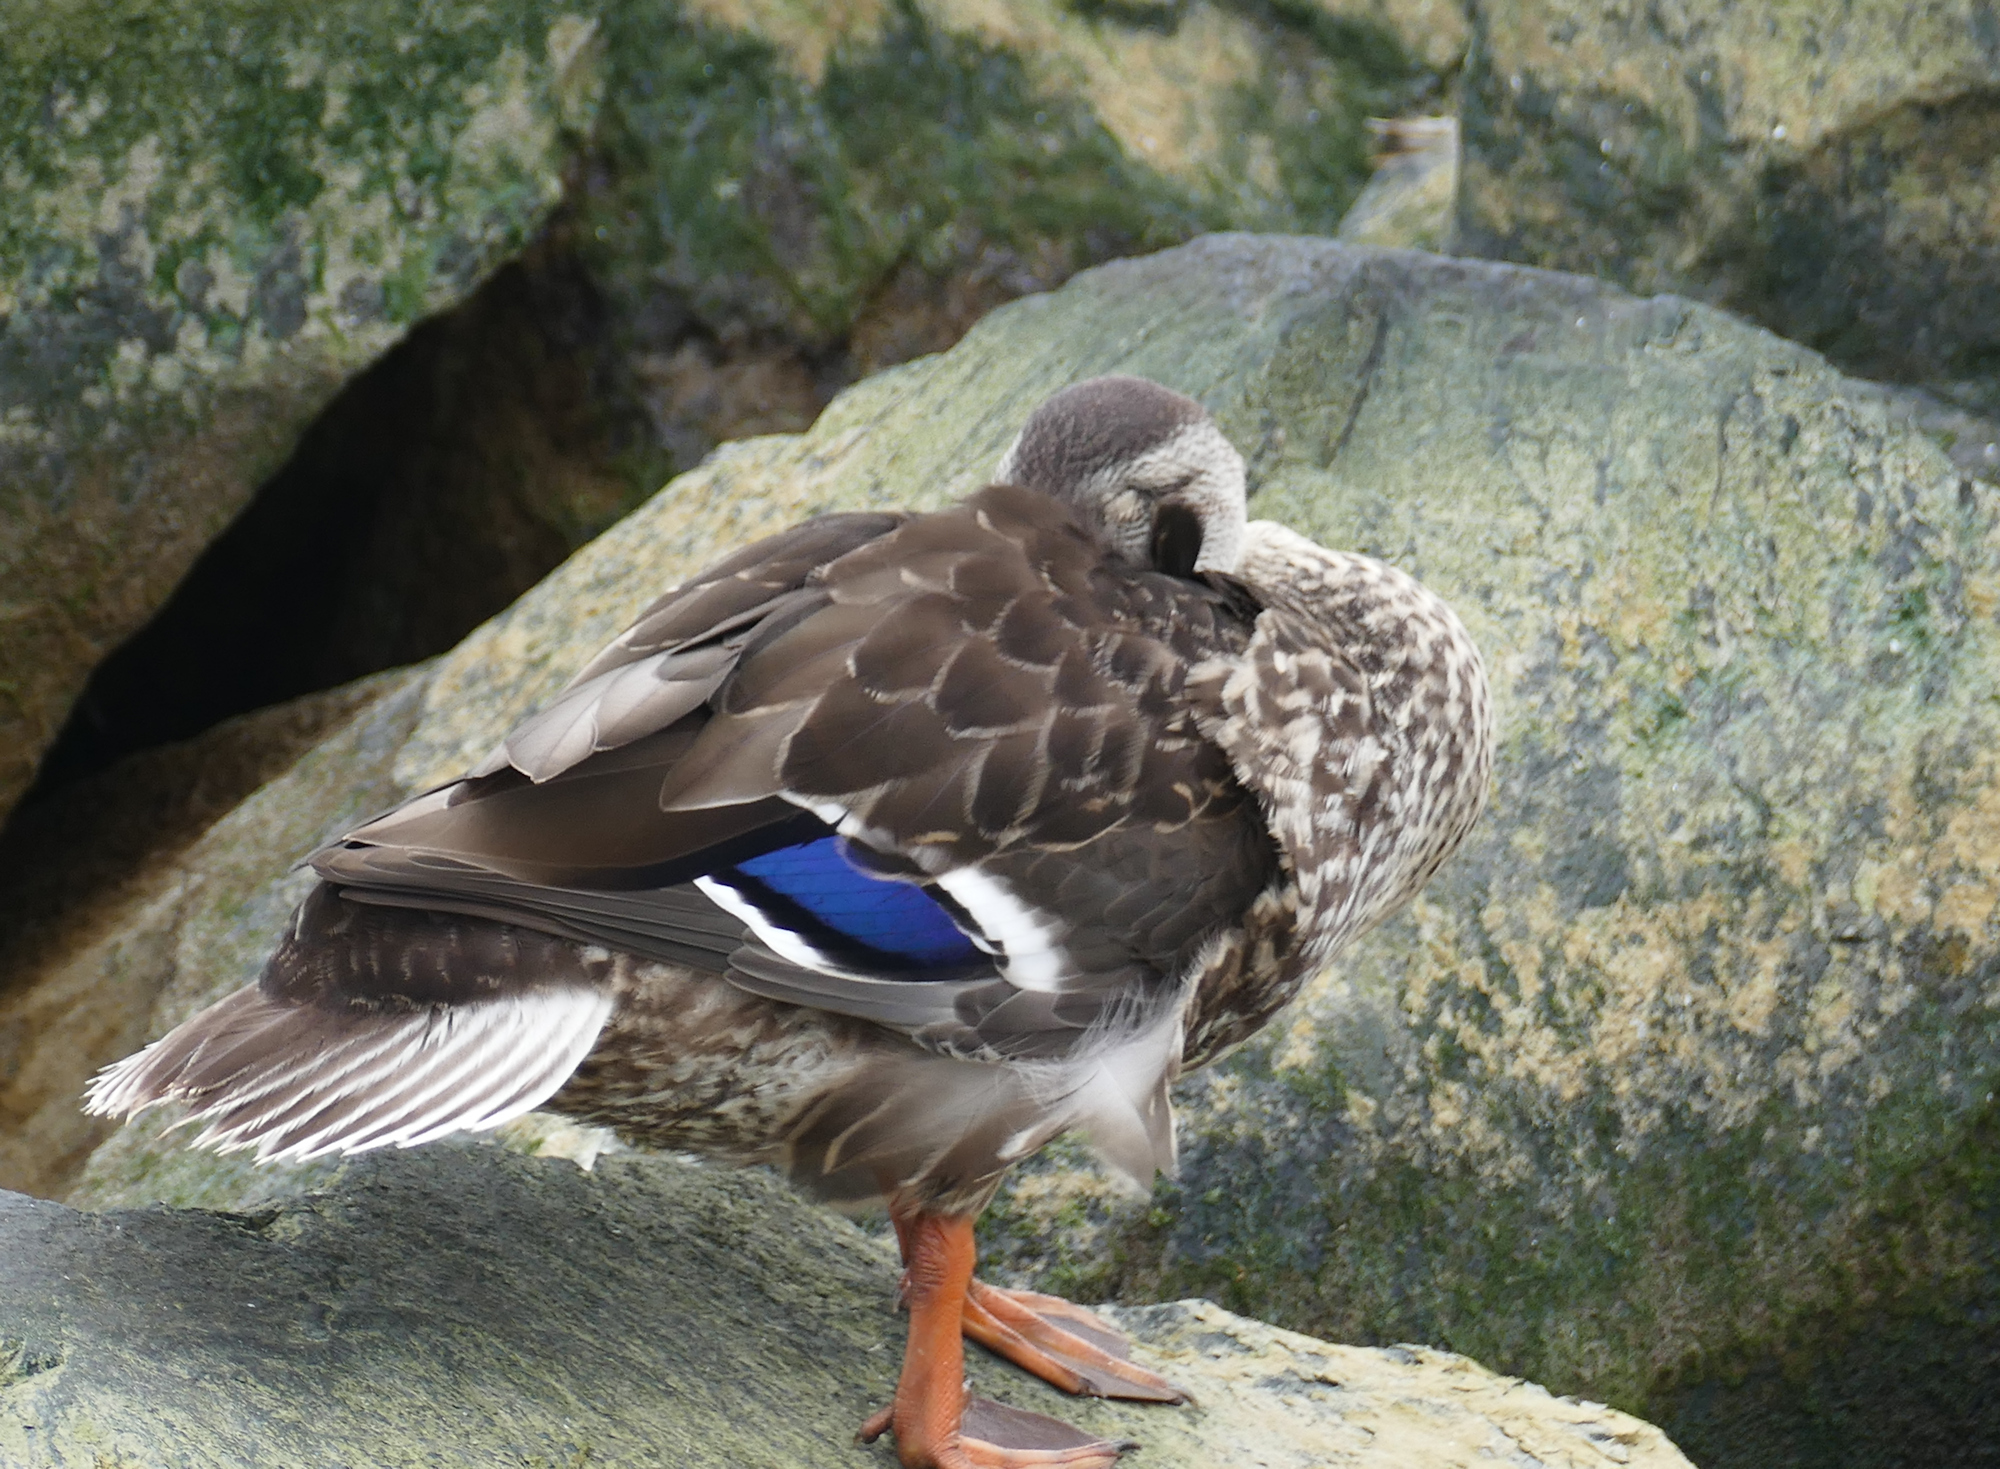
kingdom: Animalia
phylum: Chordata
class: Aves
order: Anseriformes
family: Anatidae
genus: Anas
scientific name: Anas platyrhynchos
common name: Mallard
